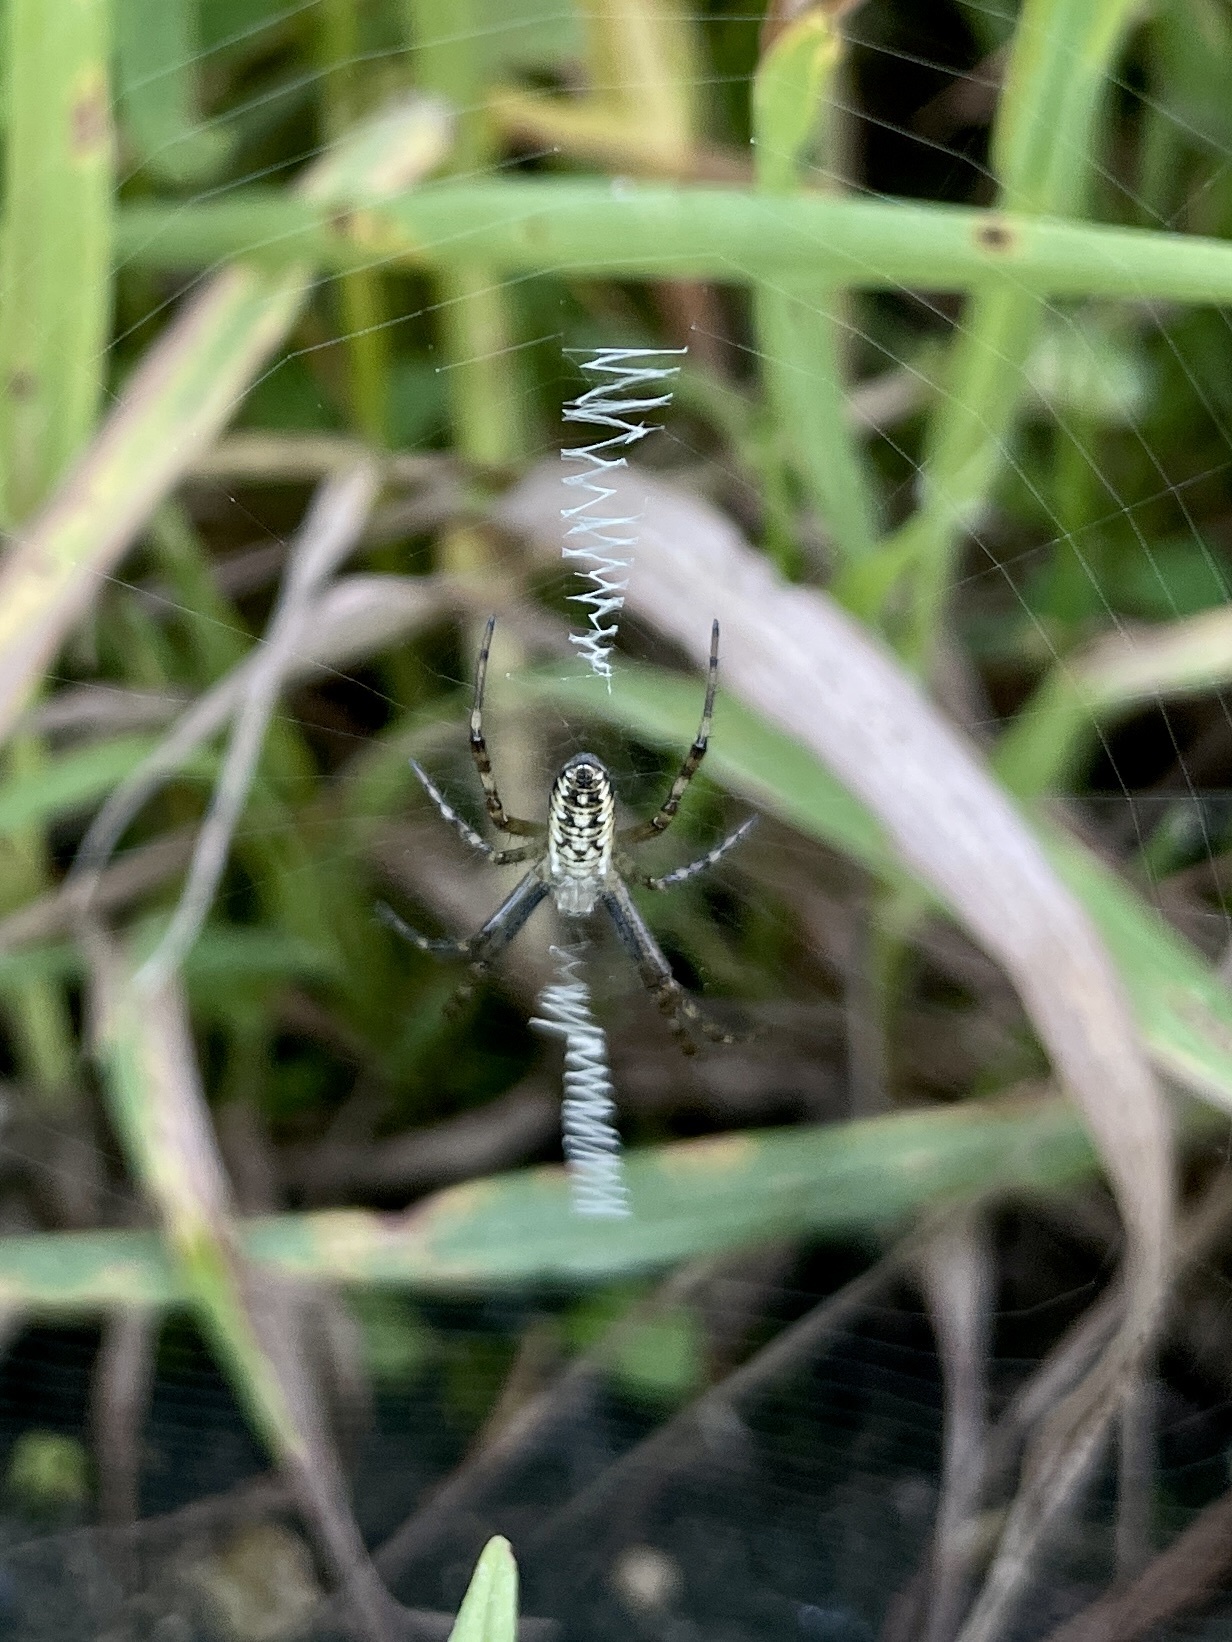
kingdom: Animalia
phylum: Arthropoda
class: Arachnida
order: Araneae
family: Araneidae
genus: Argiope
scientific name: Argiope bruennichi
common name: Wasp spider
